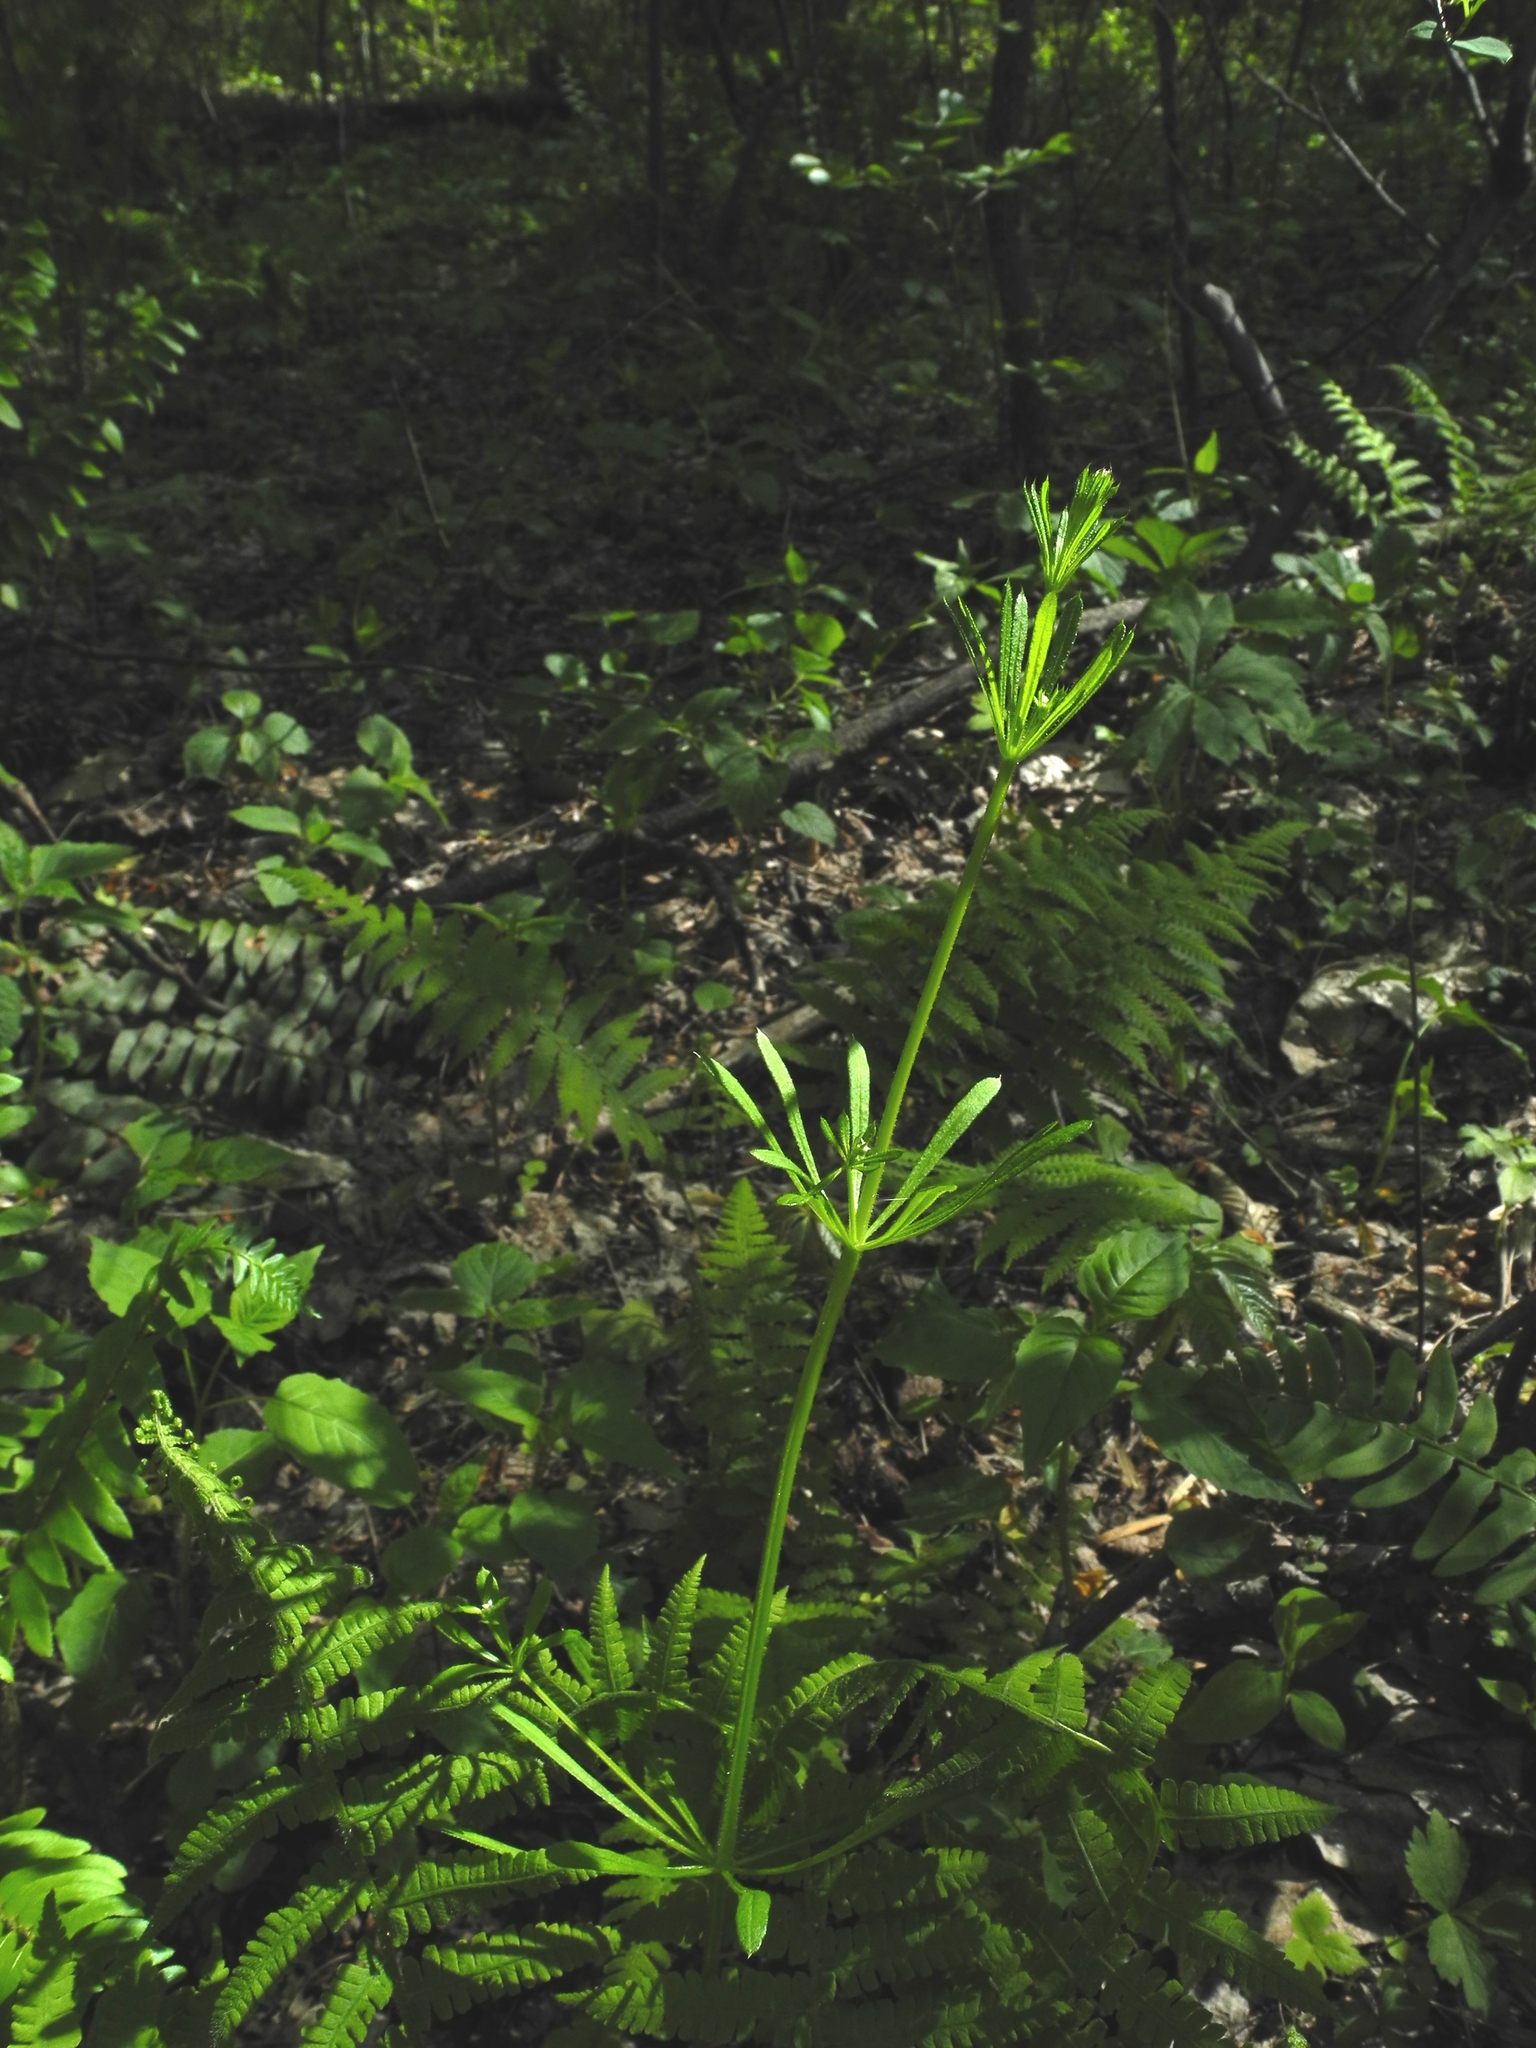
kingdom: Plantae
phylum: Tracheophyta
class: Magnoliopsida
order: Gentianales
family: Rubiaceae
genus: Galium
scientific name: Galium aparine
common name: Cleavers
